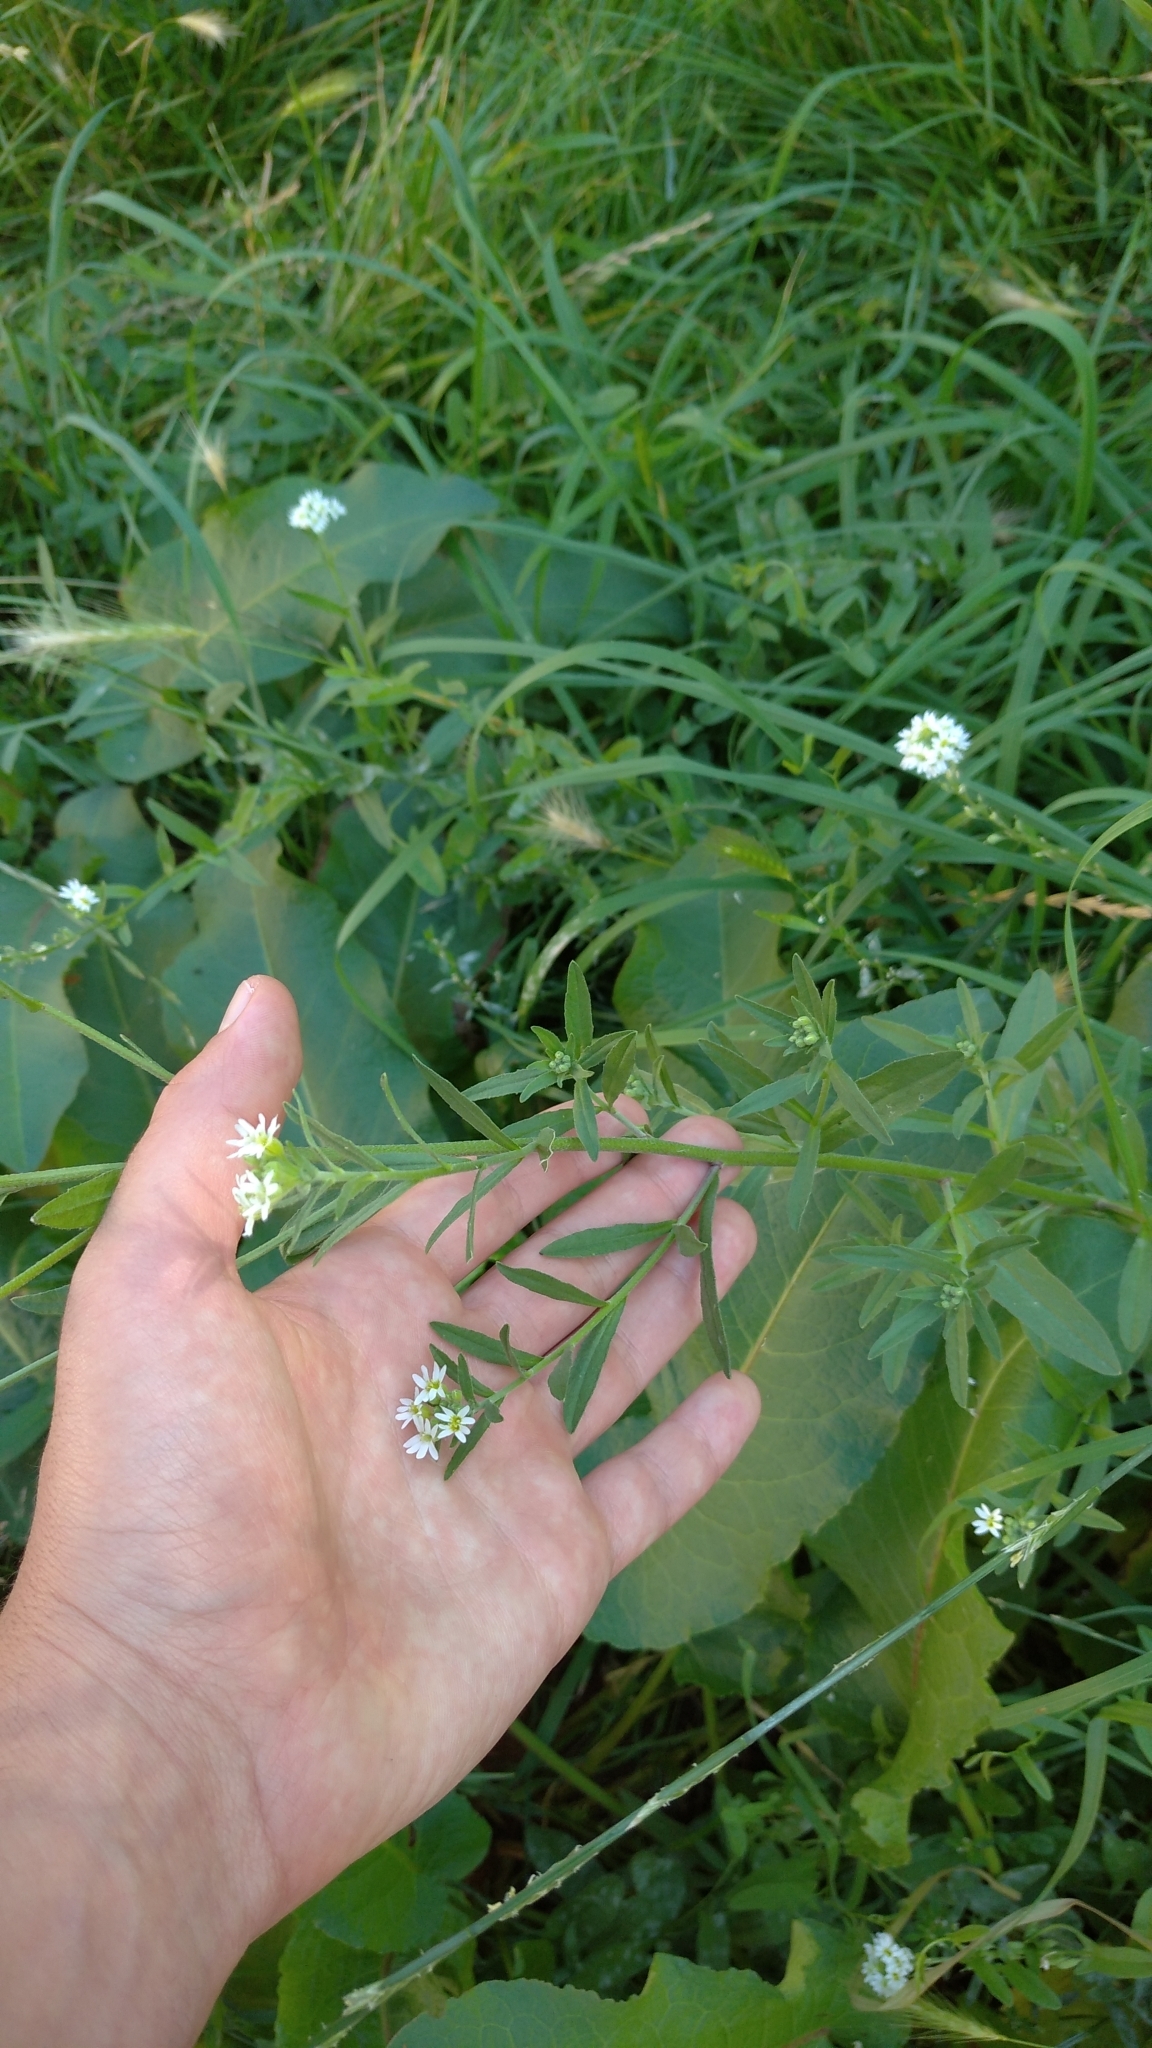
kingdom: Plantae
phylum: Tracheophyta
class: Magnoliopsida
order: Brassicales
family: Brassicaceae
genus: Berteroa
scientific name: Berteroa incana
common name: Hoary alison
